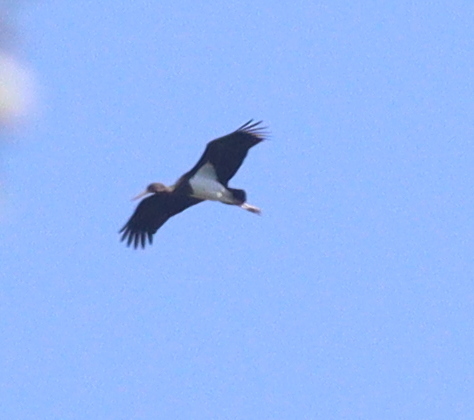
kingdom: Animalia
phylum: Chordata
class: Aves
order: Ciconiiformes
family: Ciconiidae
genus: Ciconia
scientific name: Ciconia nigra
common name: Black stork
